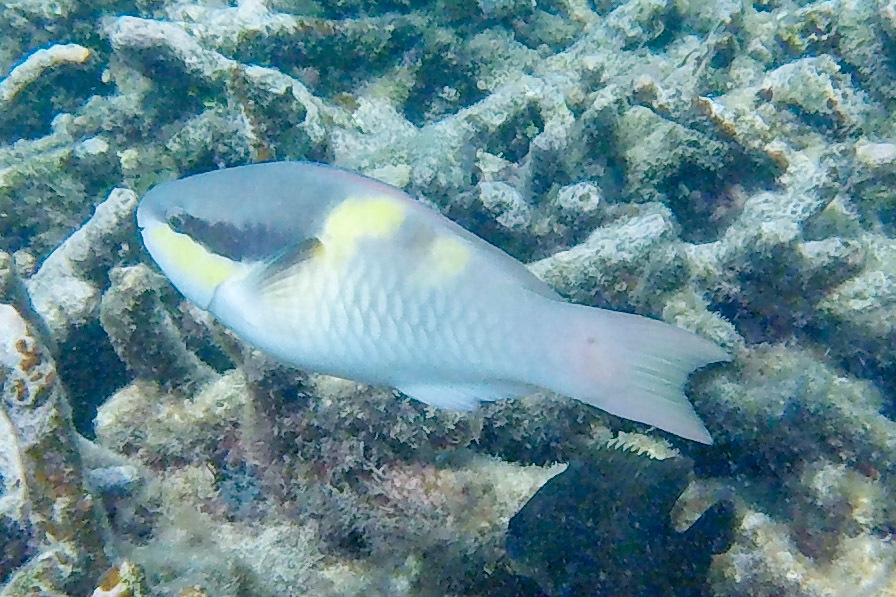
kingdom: Animalia
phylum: Chordata
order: Perciformes
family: Scaridae
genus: Scarus
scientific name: Scarus oviceps
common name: Blue parrotfish
